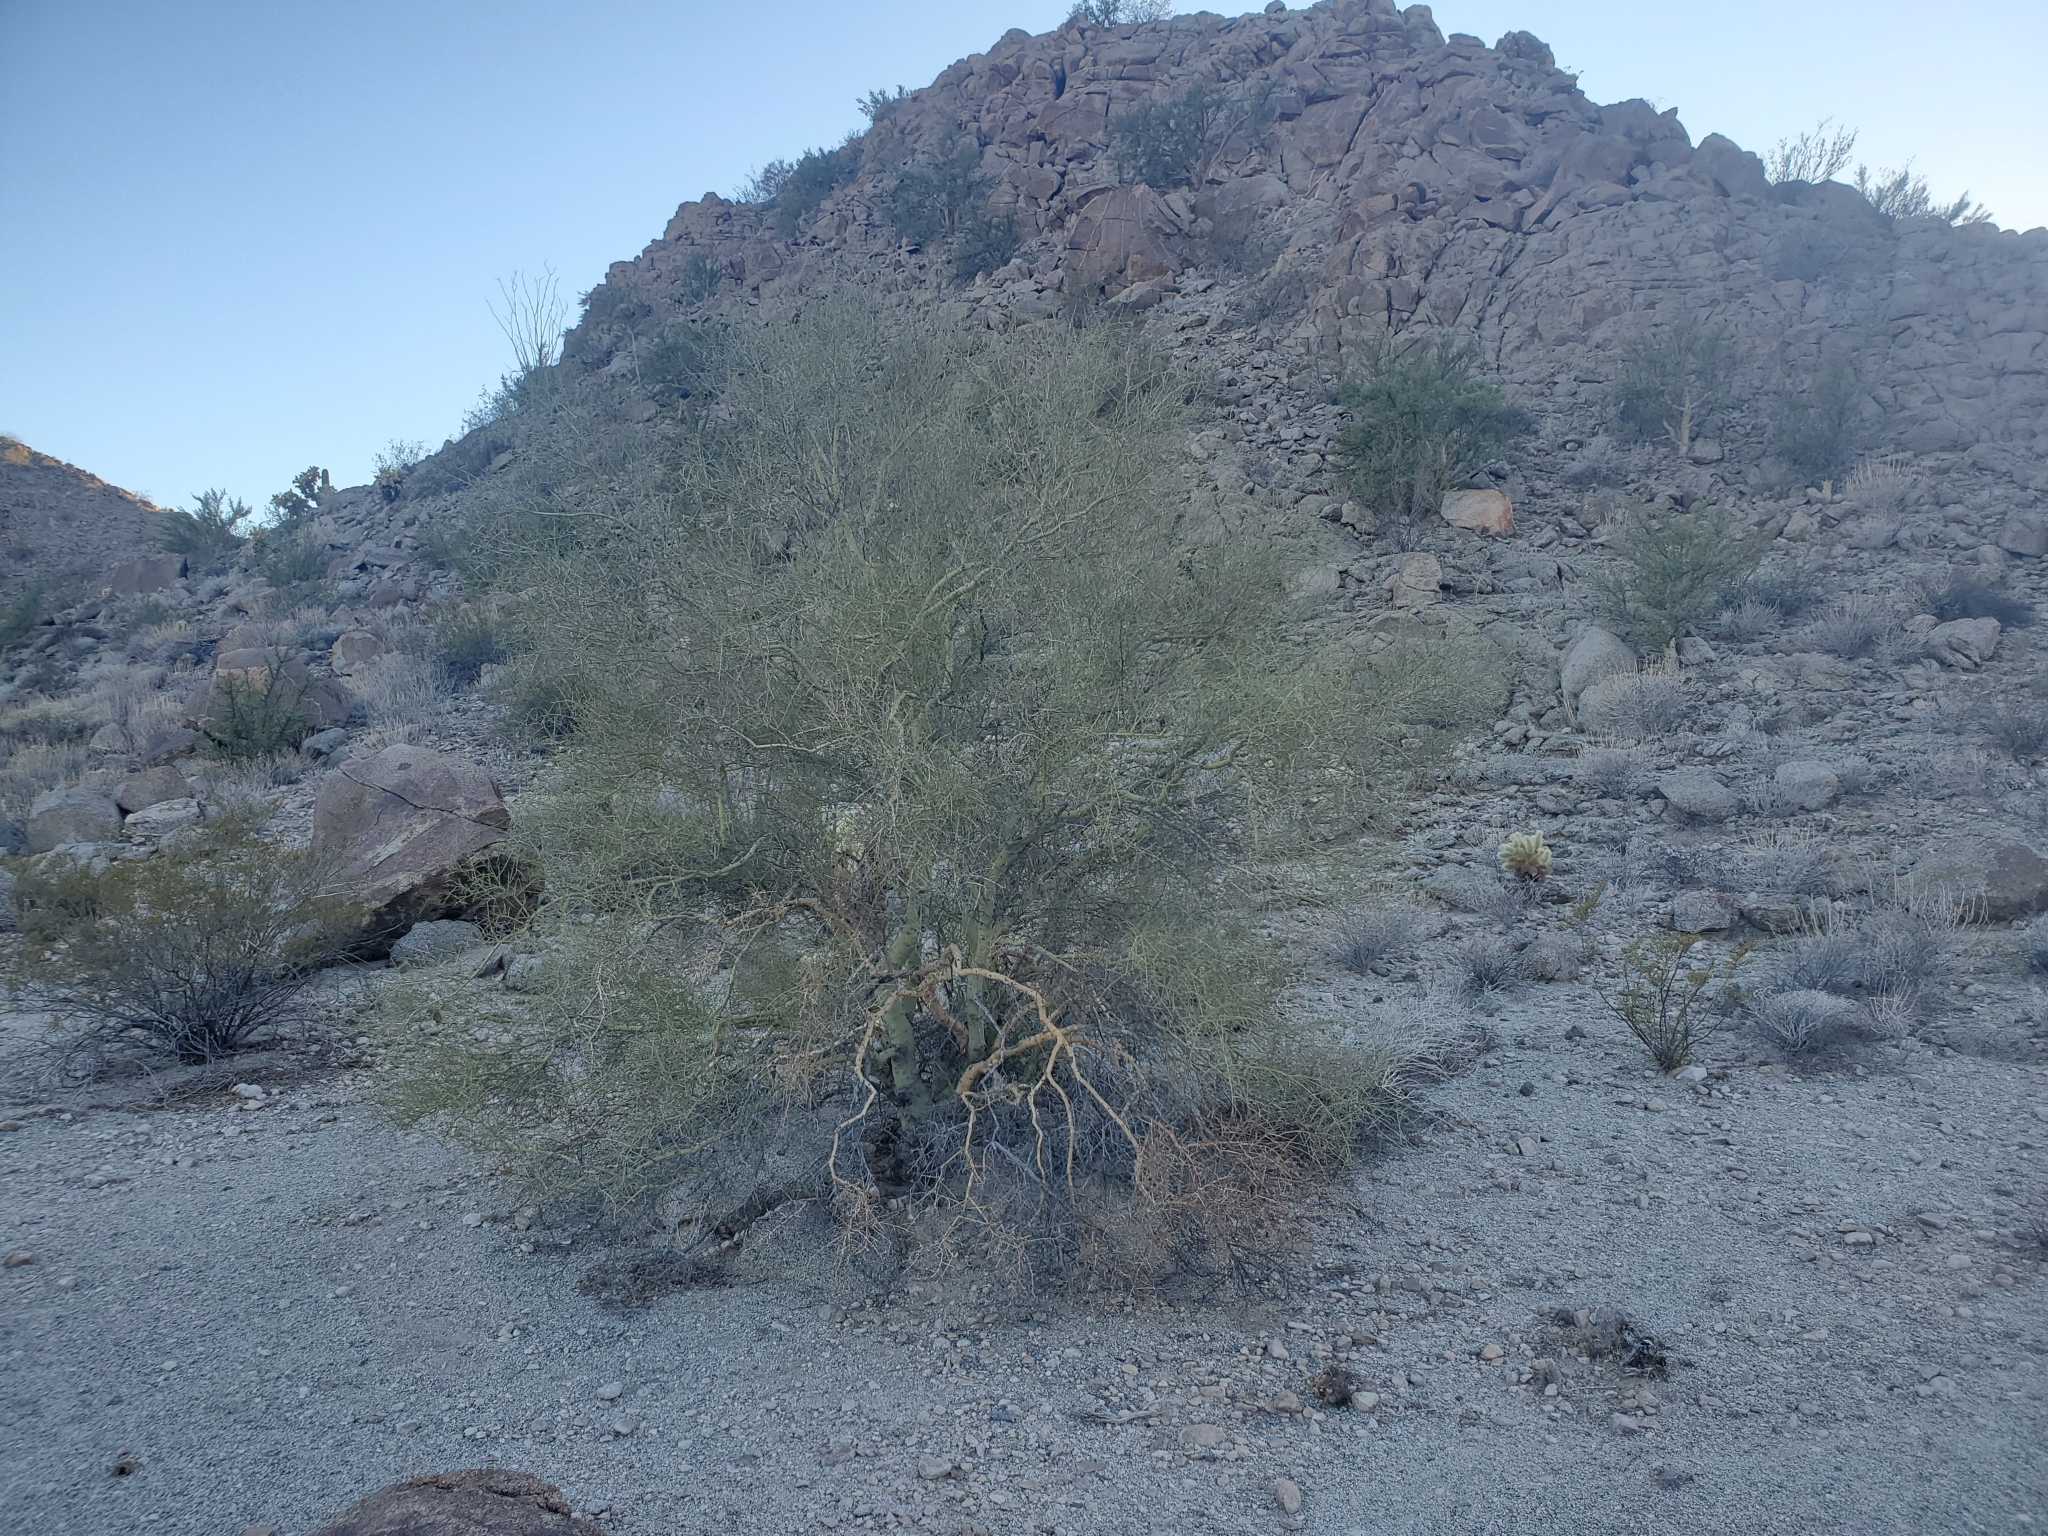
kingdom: Plantae
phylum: Tracheophyta
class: Magnoliopsida
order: Fabales
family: Fabaceae
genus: Parkinsonia
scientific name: Parkinsonia microphylla
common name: Yellow paloverde
